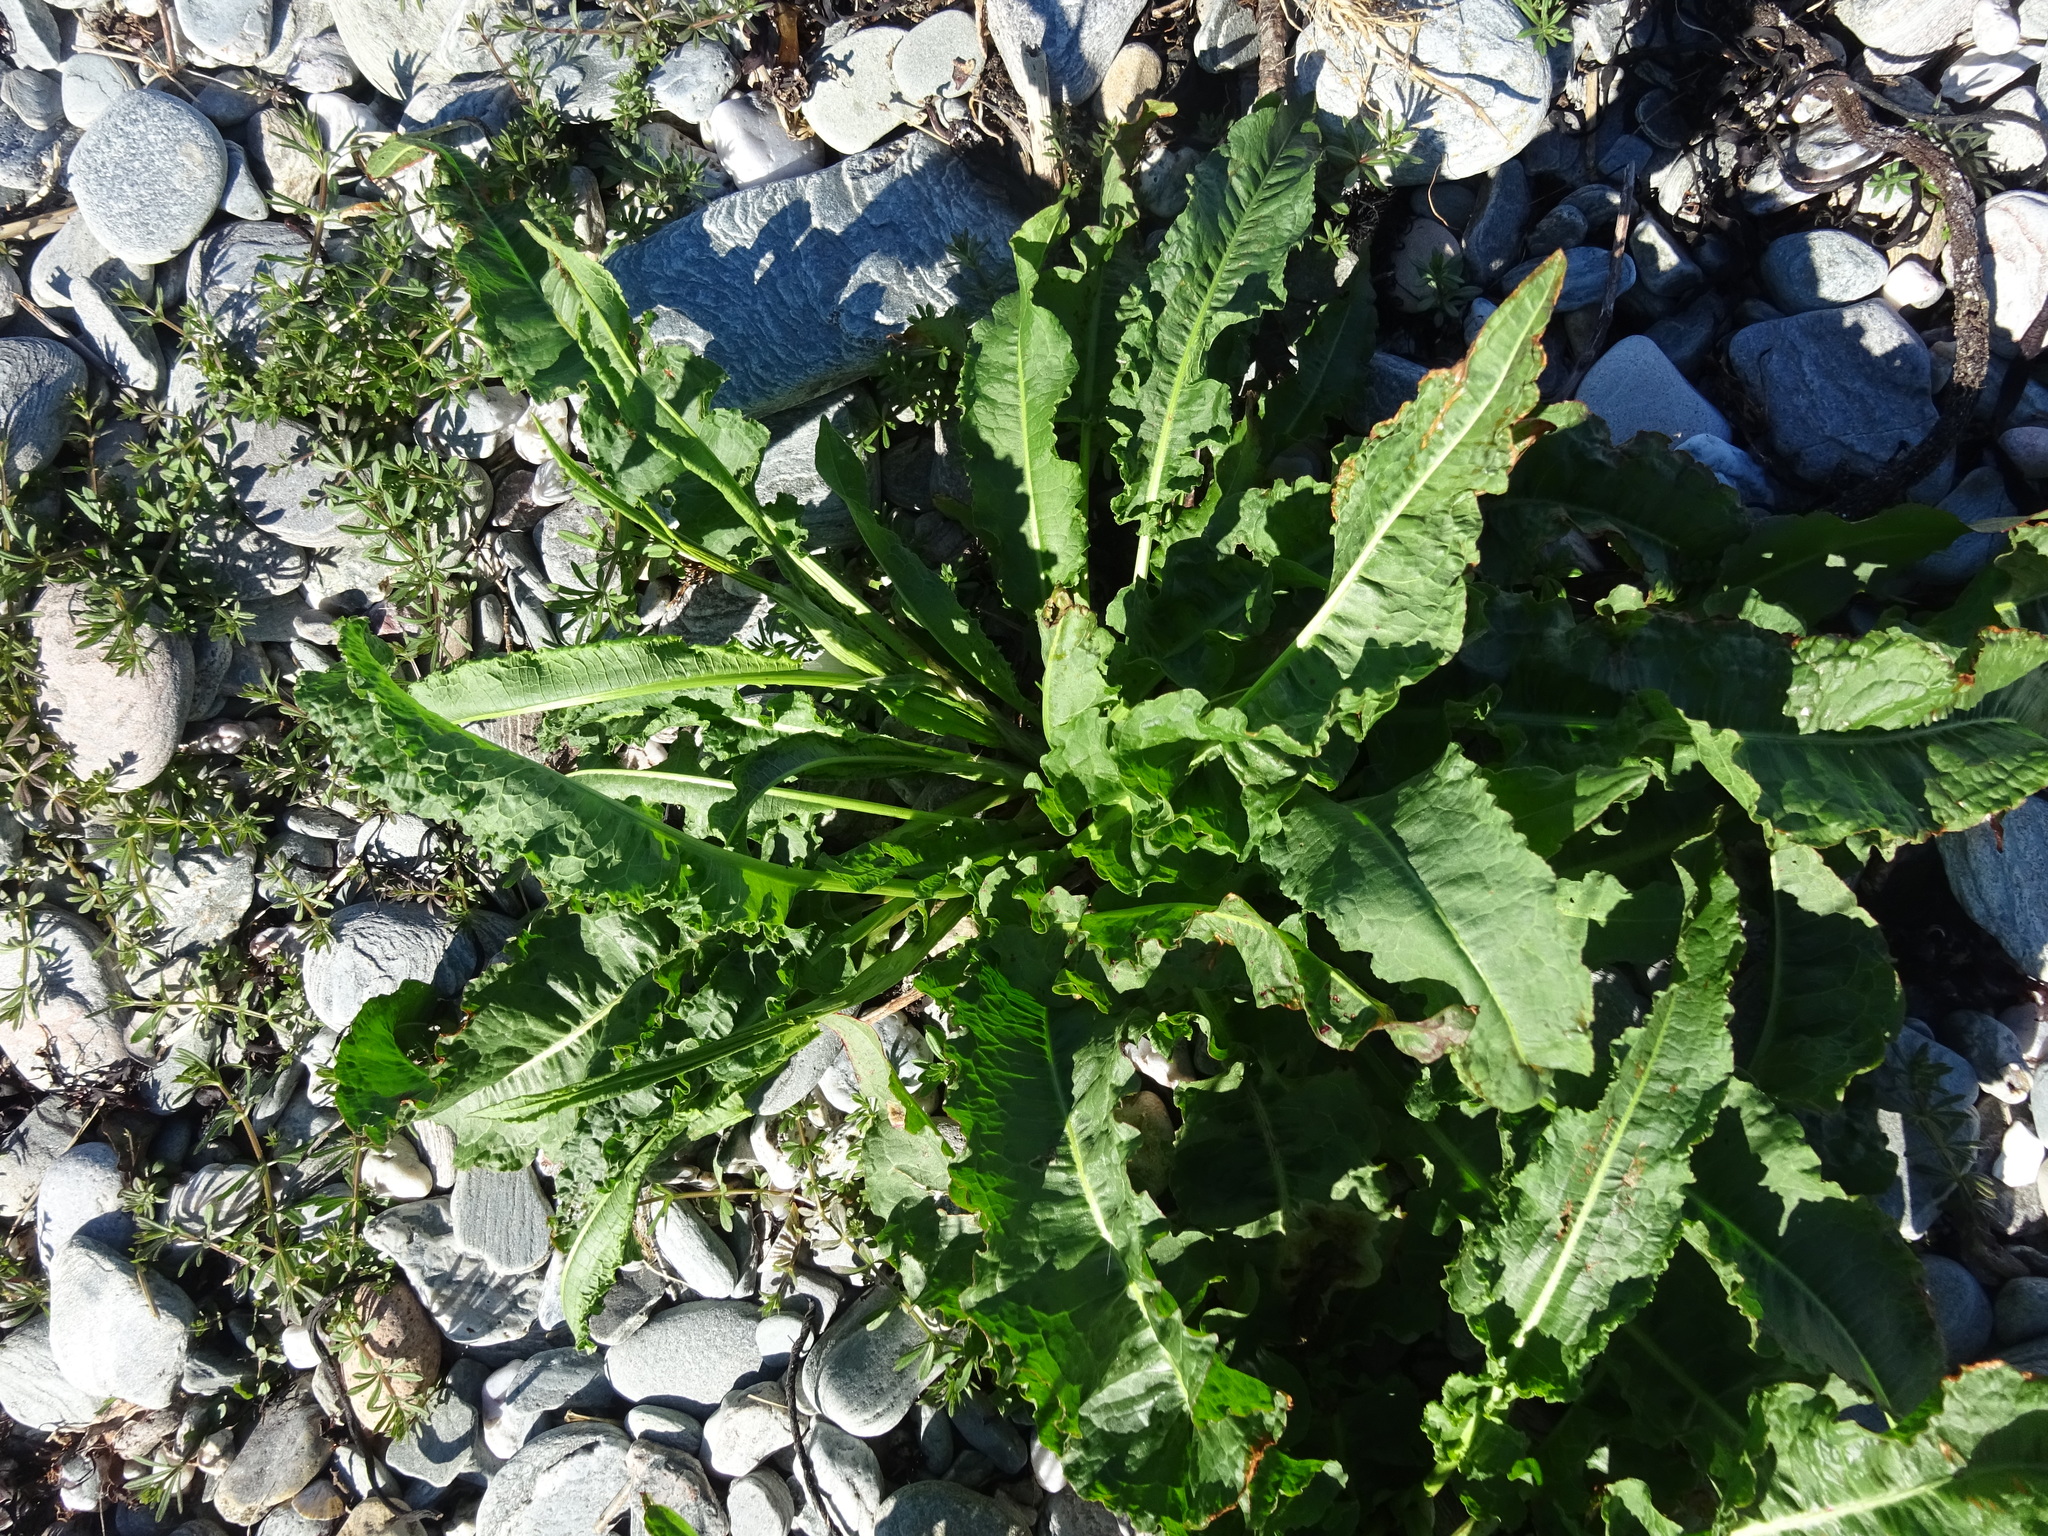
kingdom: Plantae
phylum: Tracheophyta
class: Magnoliopsida
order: Caryophyllales
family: Polygonaceae
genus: Rumex
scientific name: Rumex crispus
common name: Curled dock
